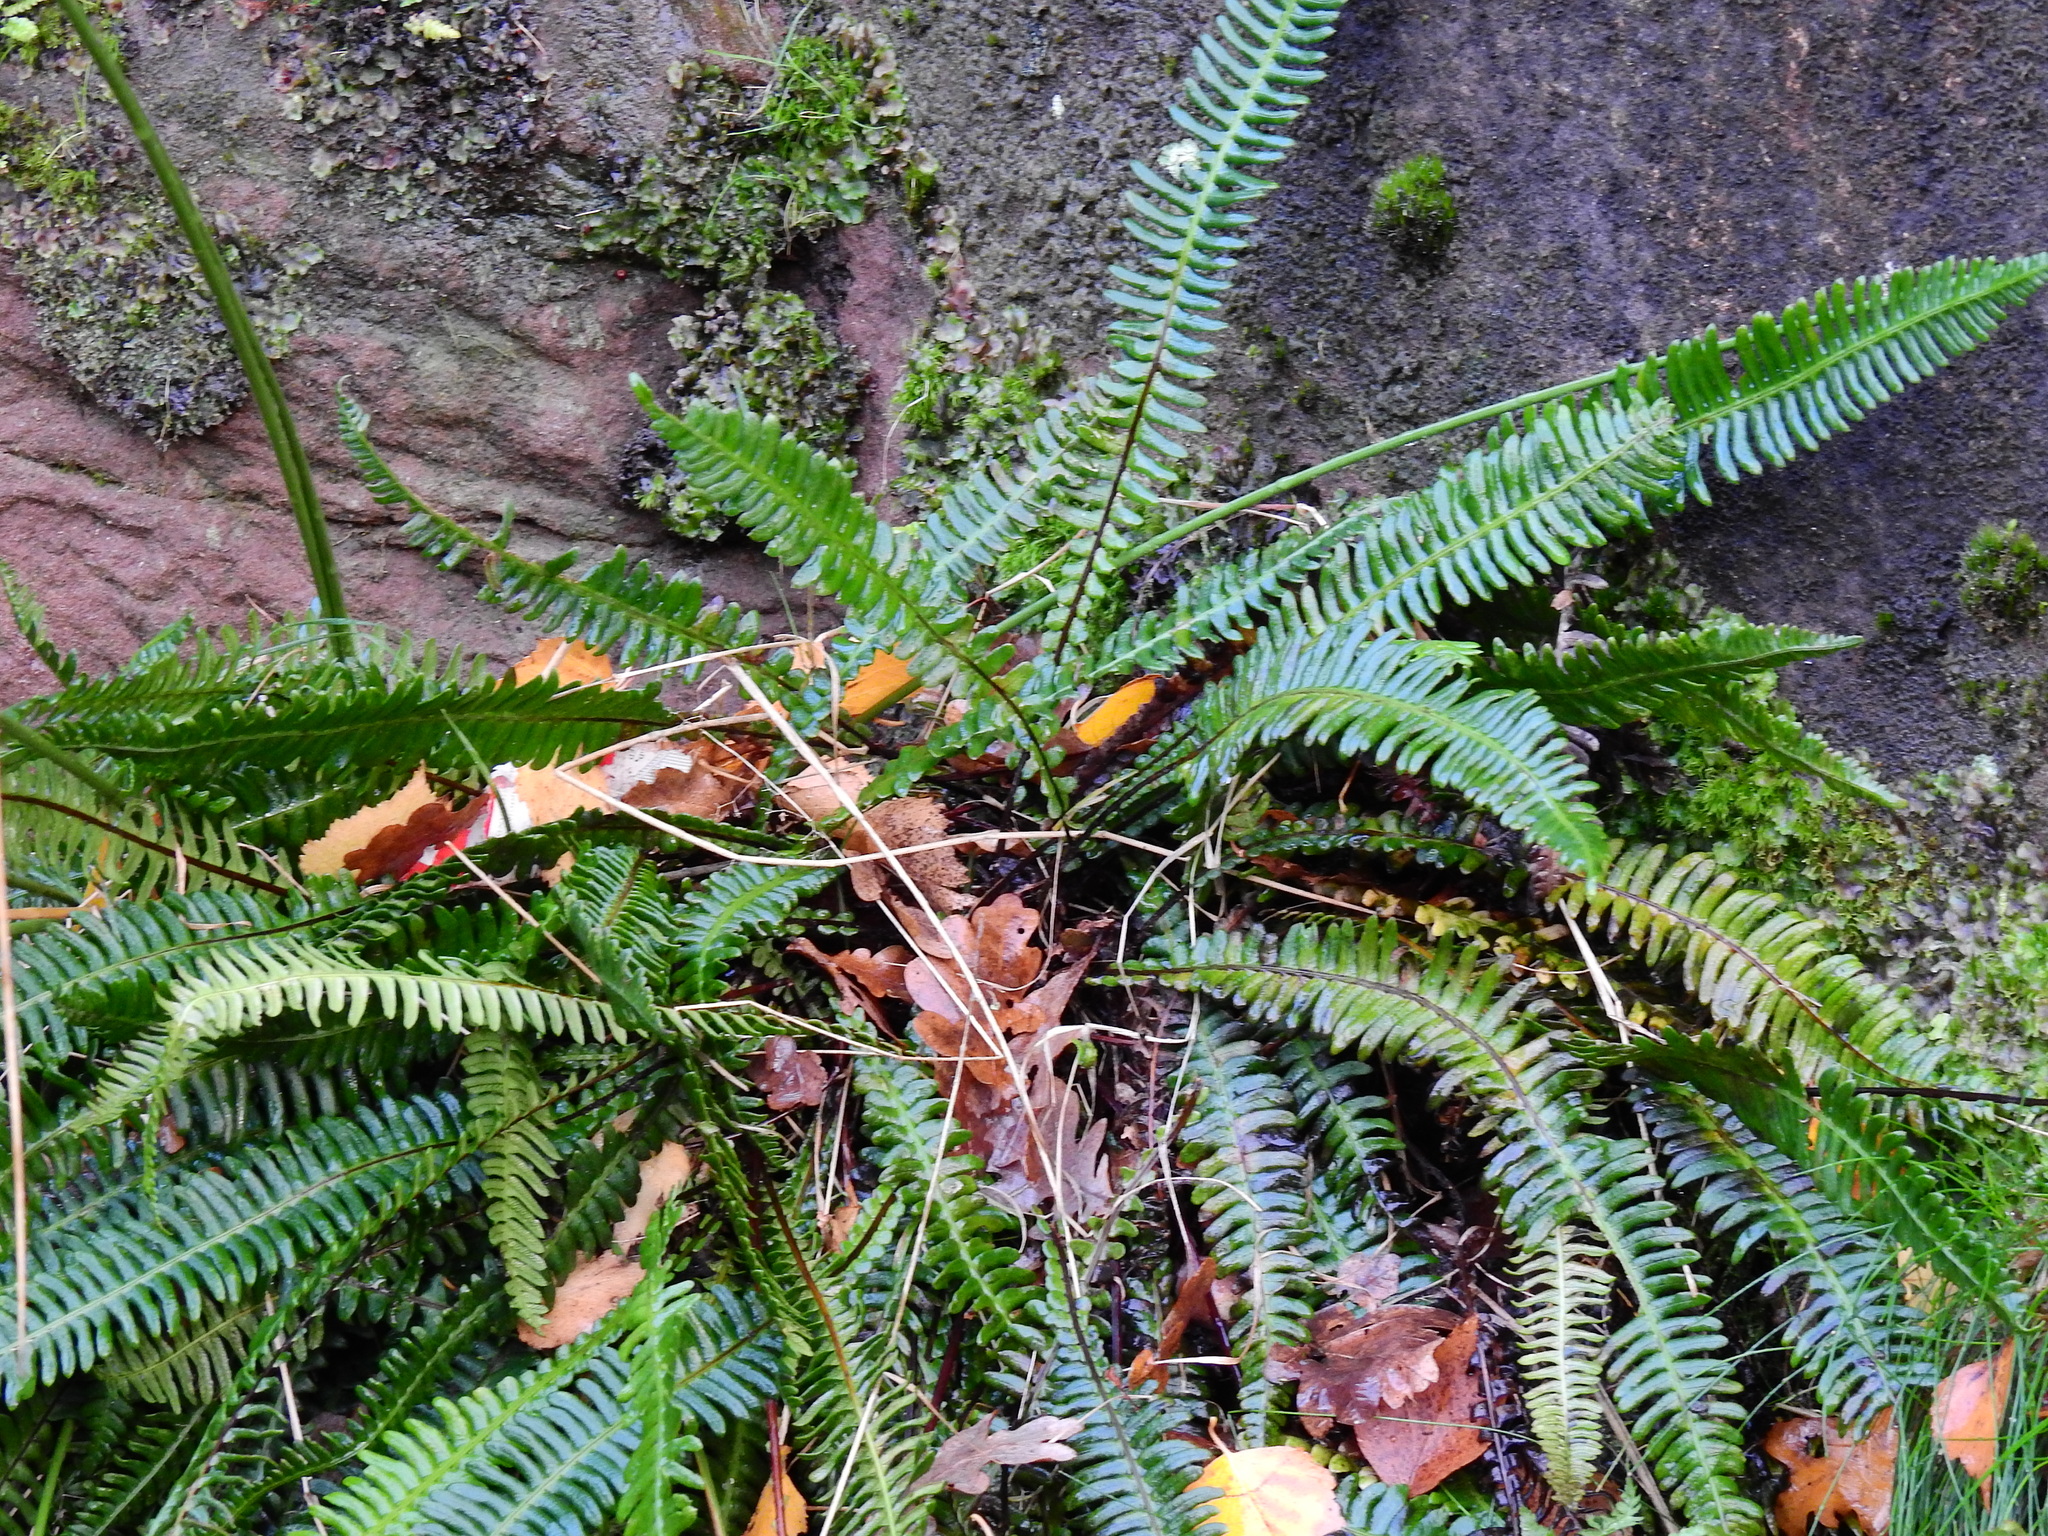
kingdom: Plantae
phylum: Tracheophyta
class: Polypodiopsida
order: Polypodiales
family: Blechnaceae
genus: Struthiopteris
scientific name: Struthiopteris spicant
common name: Deer fern
